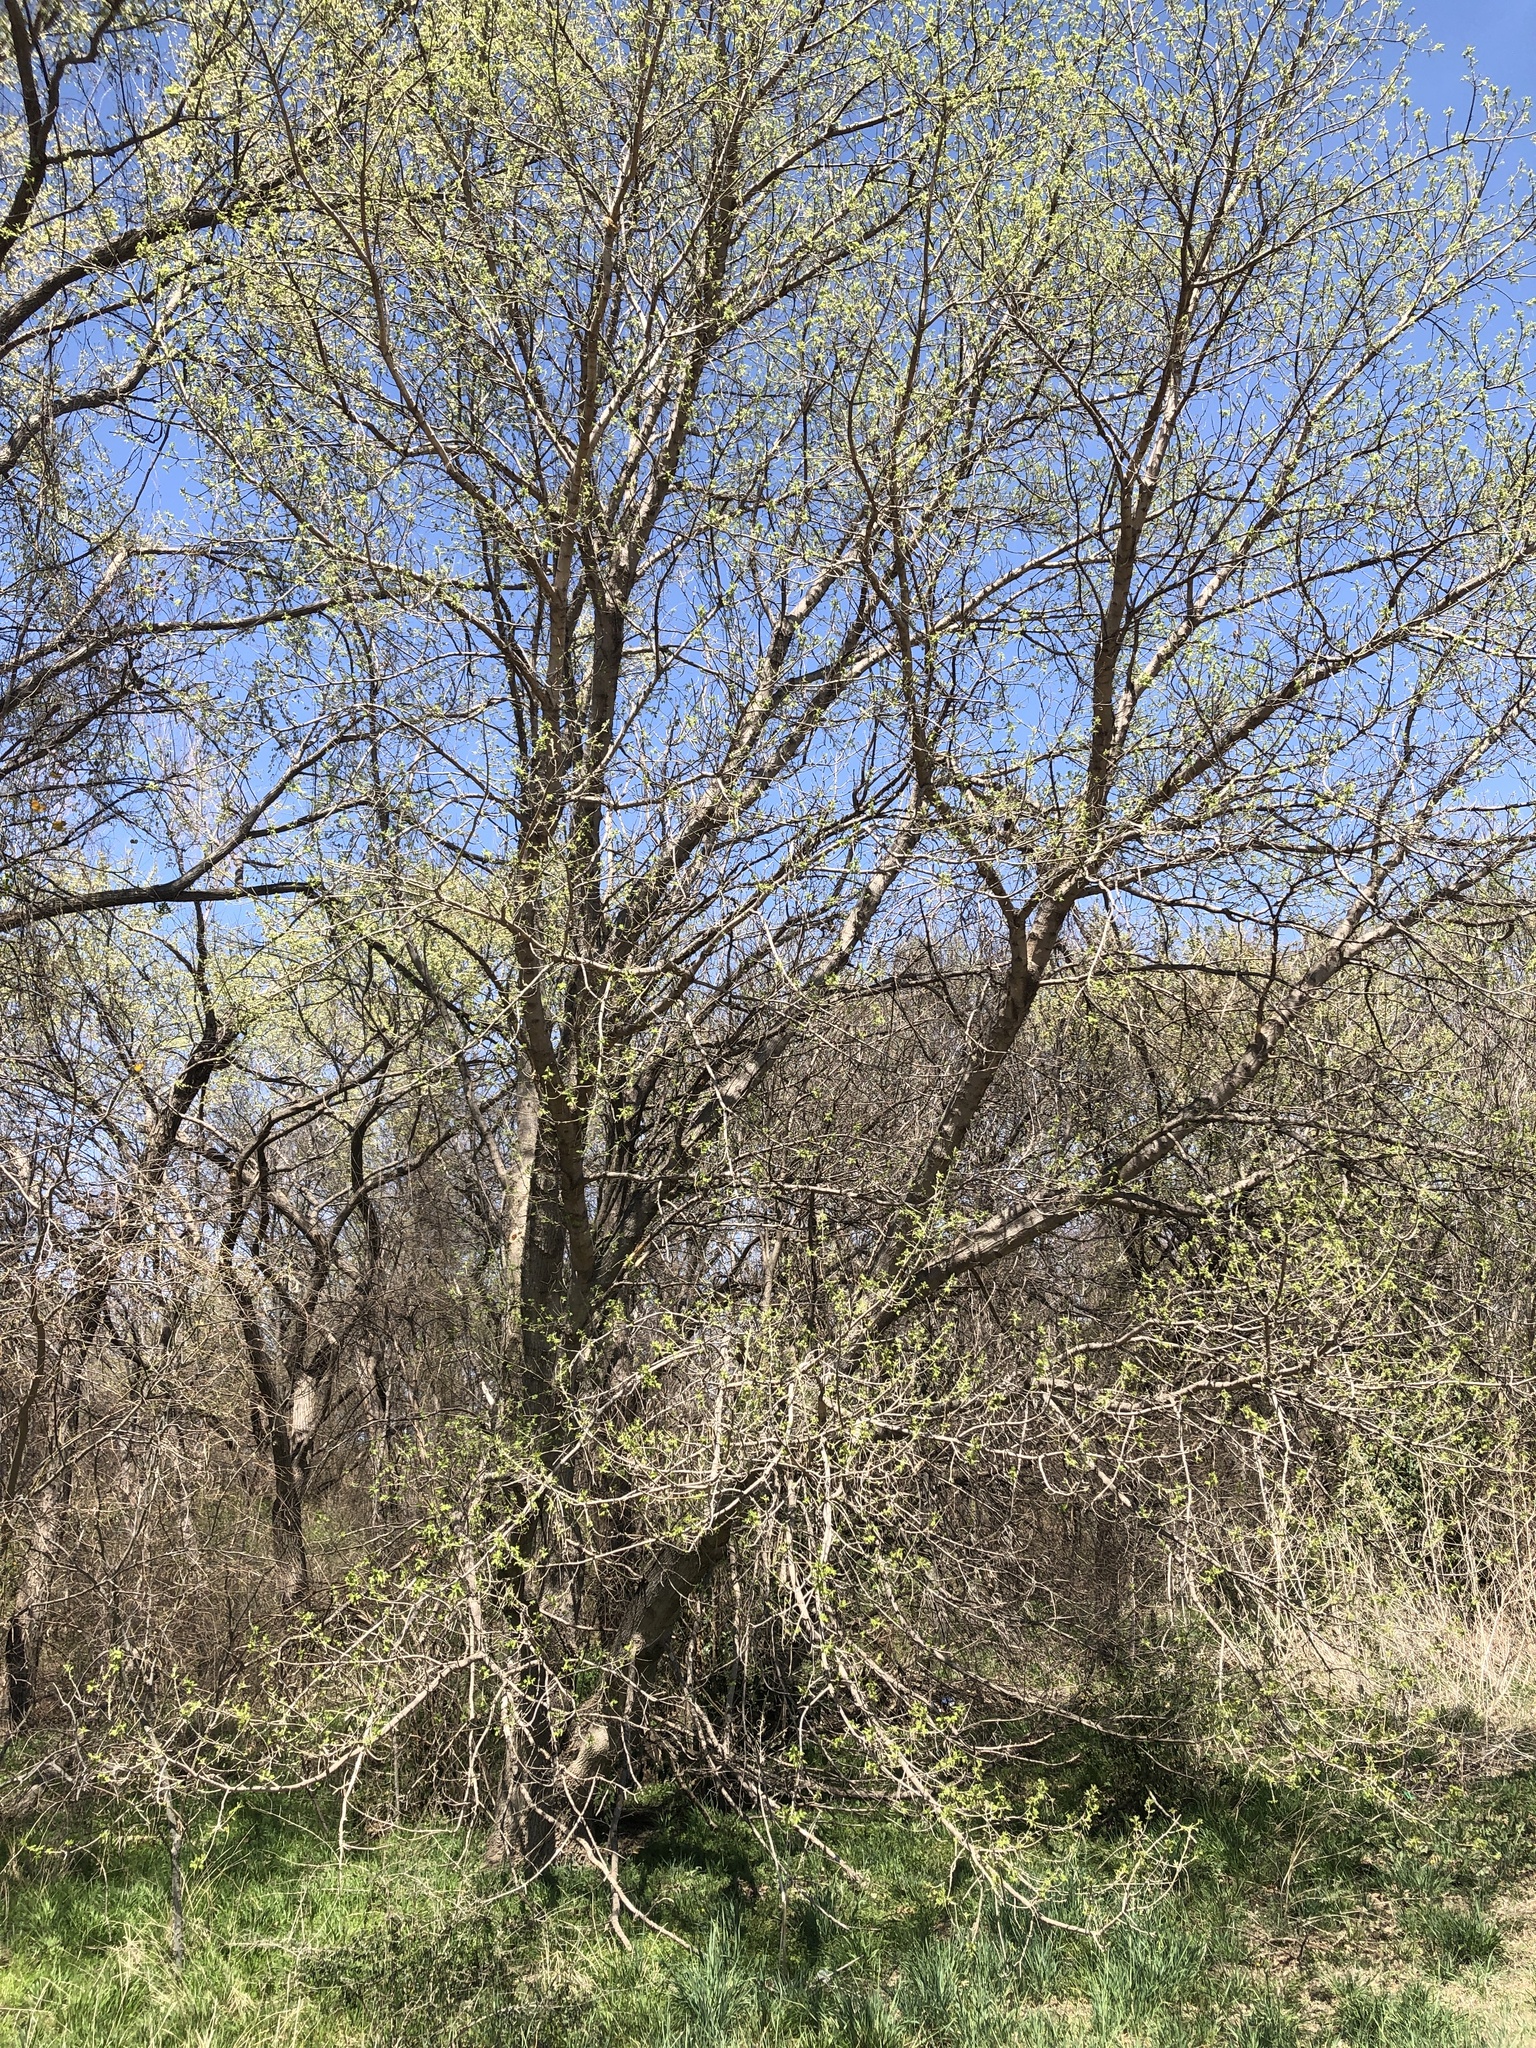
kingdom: Plantae
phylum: Tracheophyta
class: Magnoliopsida
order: Sapindales
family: Sapindaceae
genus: Acer
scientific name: Acer negundo
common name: Ashleaf maple
